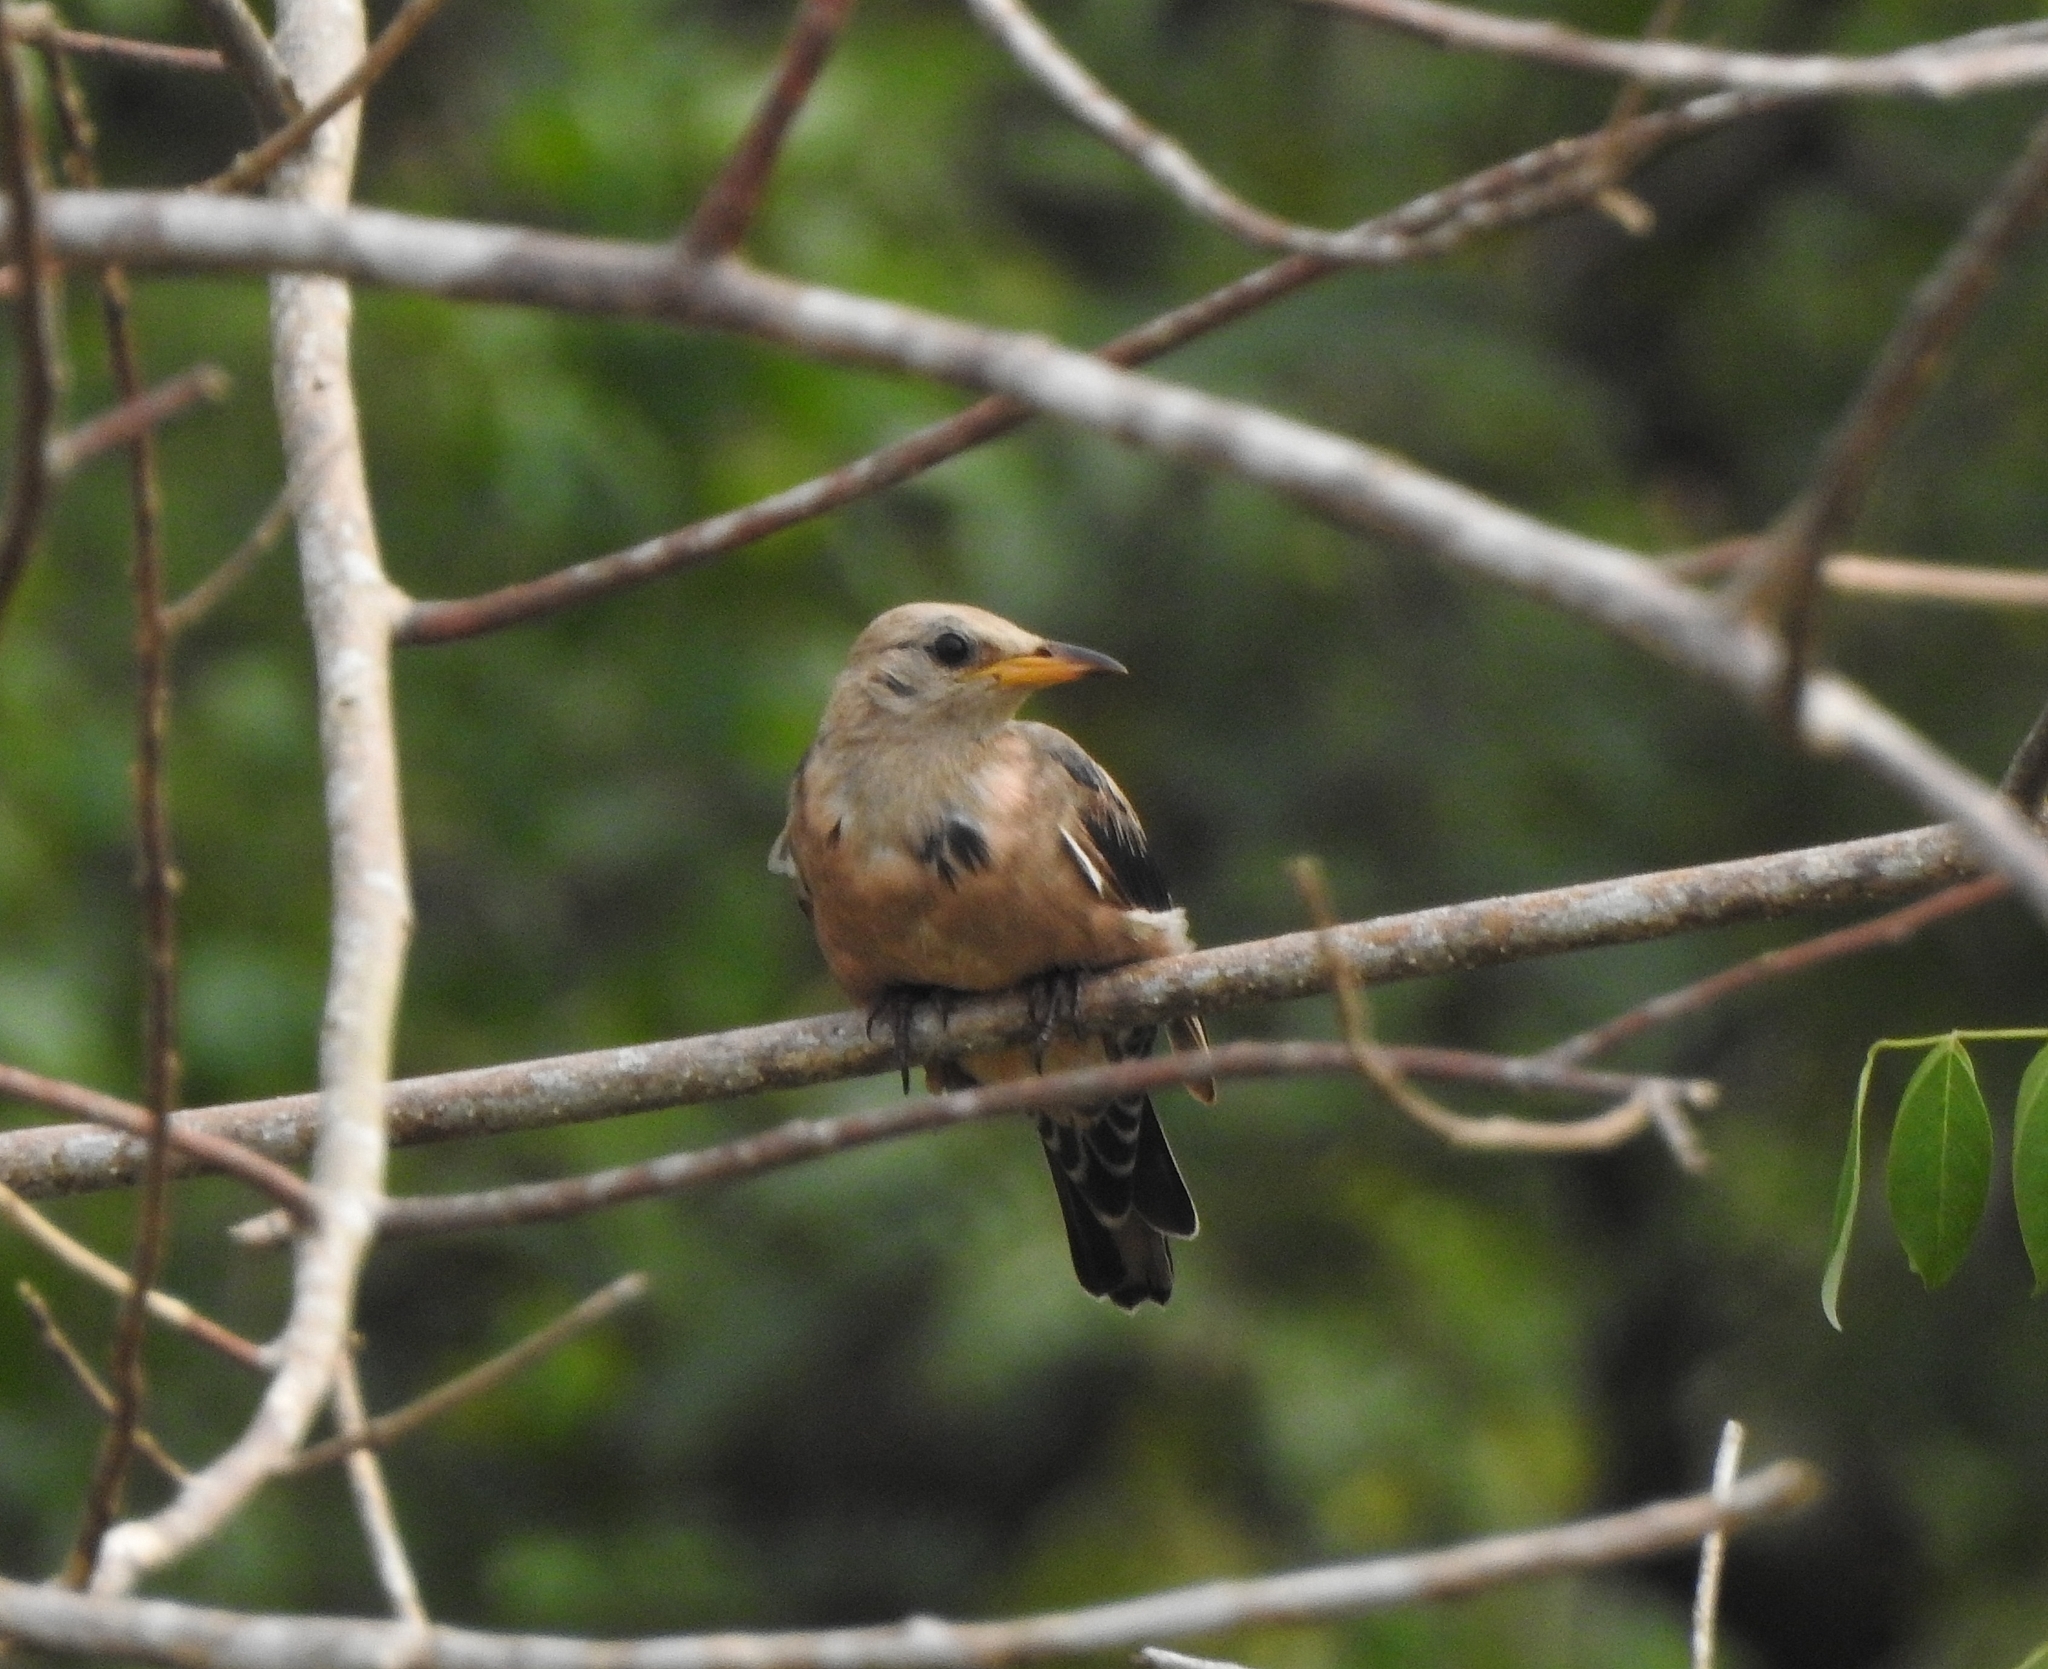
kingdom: Animalia
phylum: Chordata
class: Aves
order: Passeriformes
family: Sturnidae
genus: Pastor
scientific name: Pastor roseus
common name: Rosy starling
